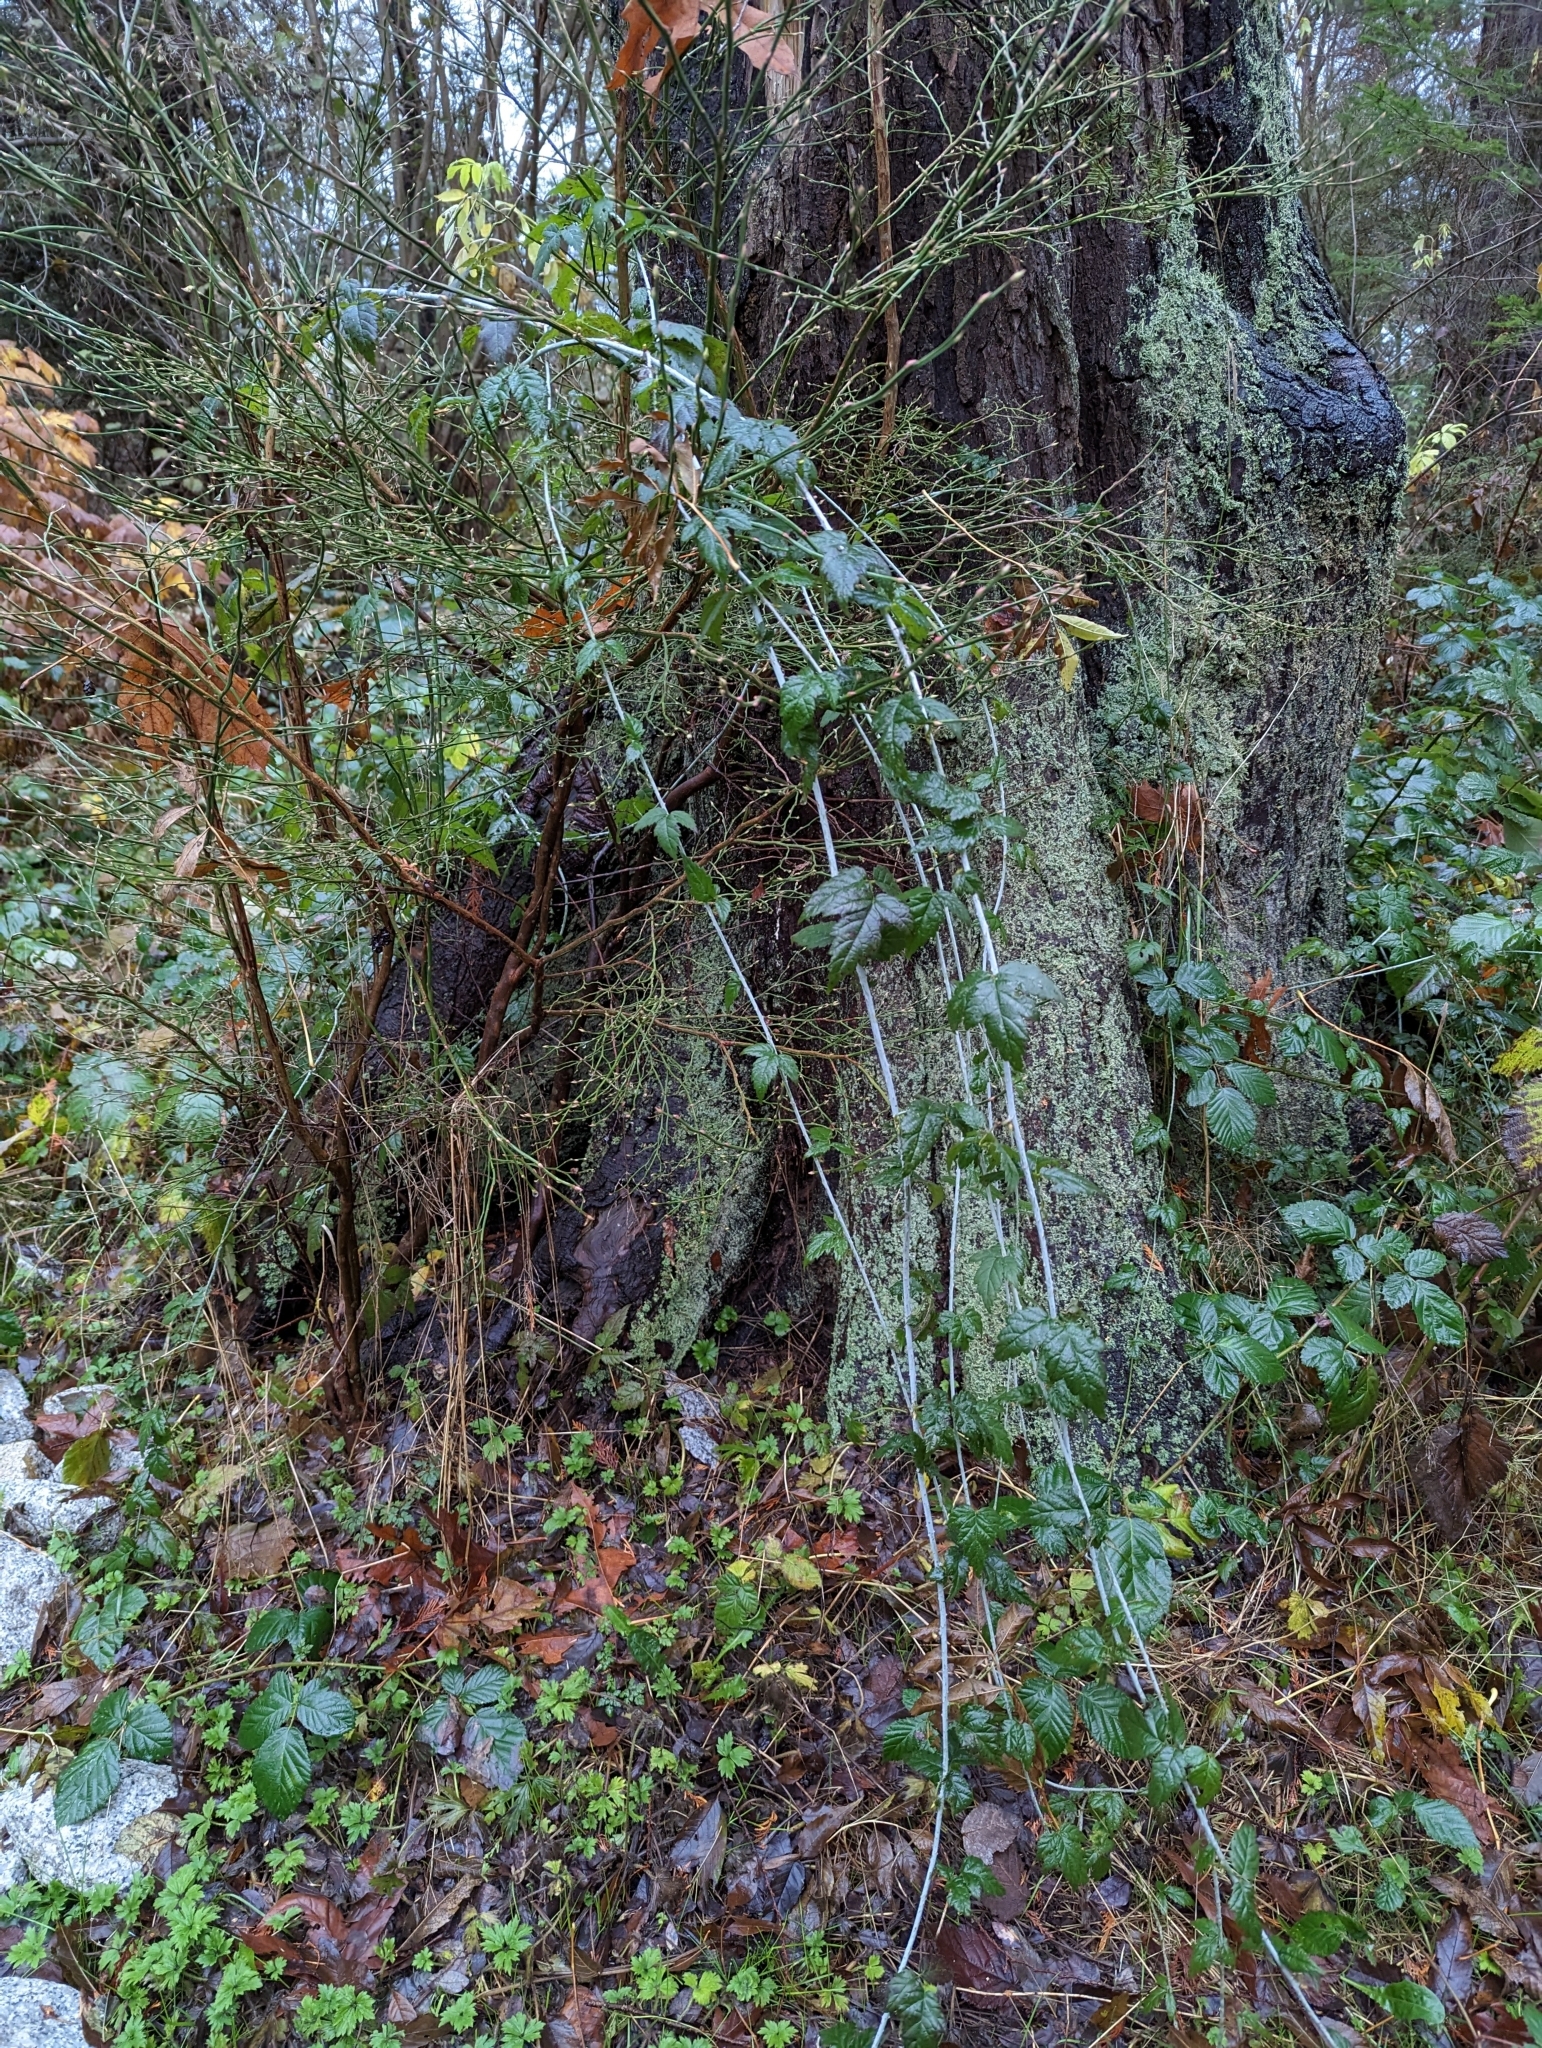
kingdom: Plantae
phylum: Tracheophyta
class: Magnoliopsida
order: Rosales
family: Rosaceae
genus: Rubus
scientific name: Rubus ursinus
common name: Pacific blackberry
